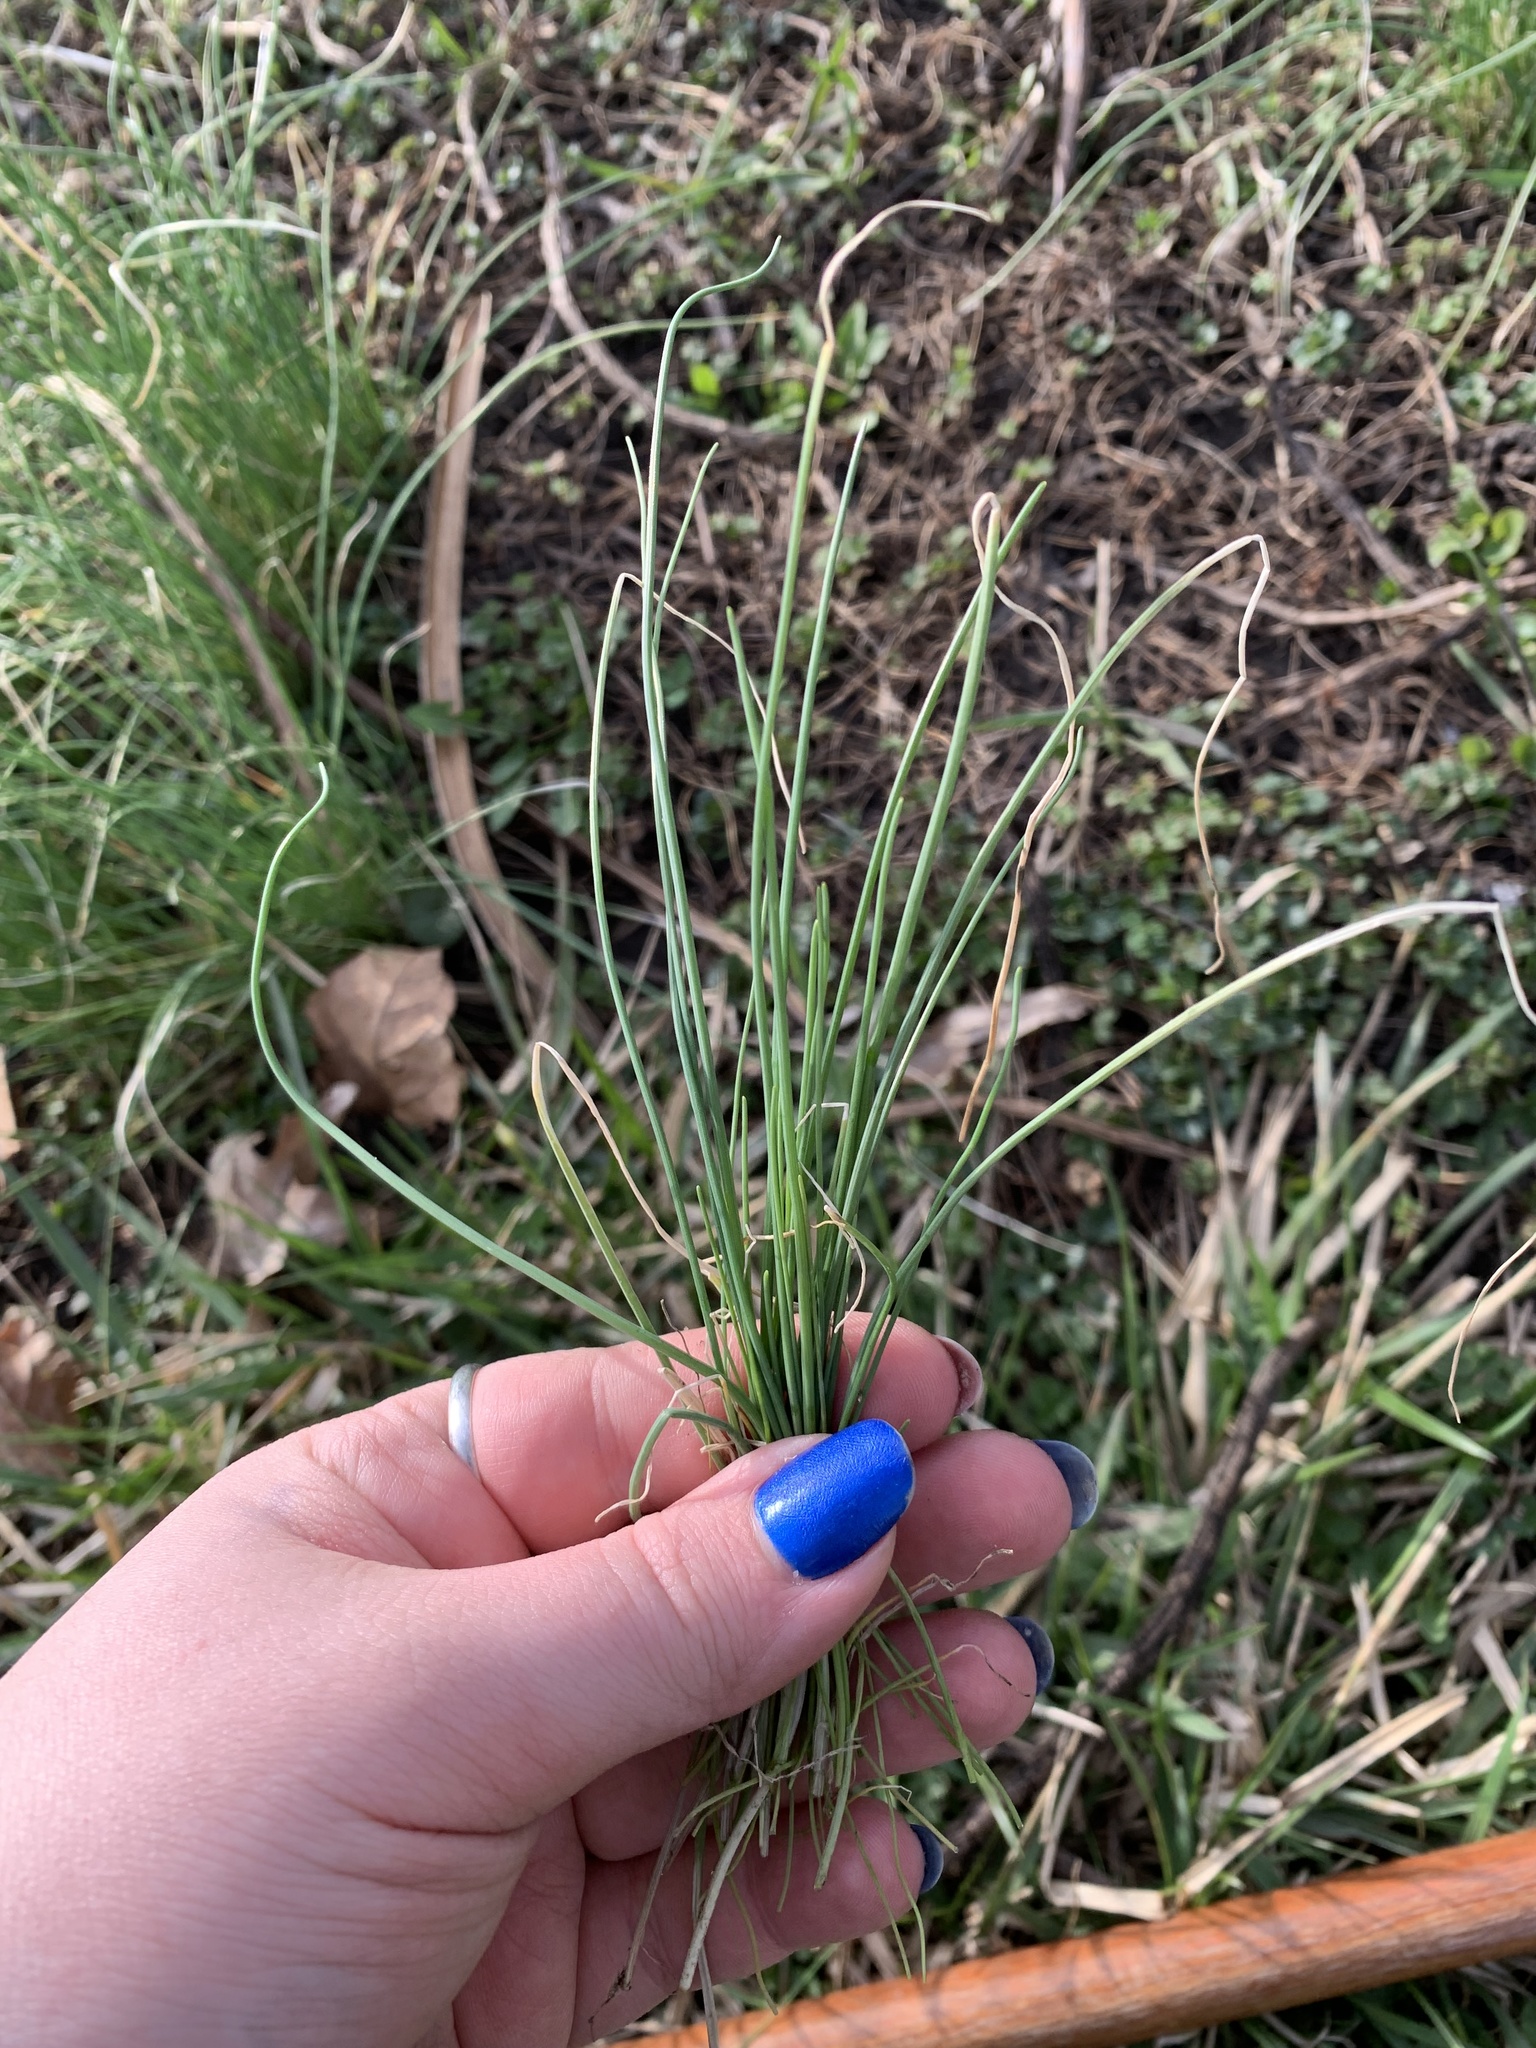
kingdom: Plantae
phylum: Tracheophyta
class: Liliopsida
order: Asparagales
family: Amaryllidaceae
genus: Allium
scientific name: Allium vineale
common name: Crow garlic
